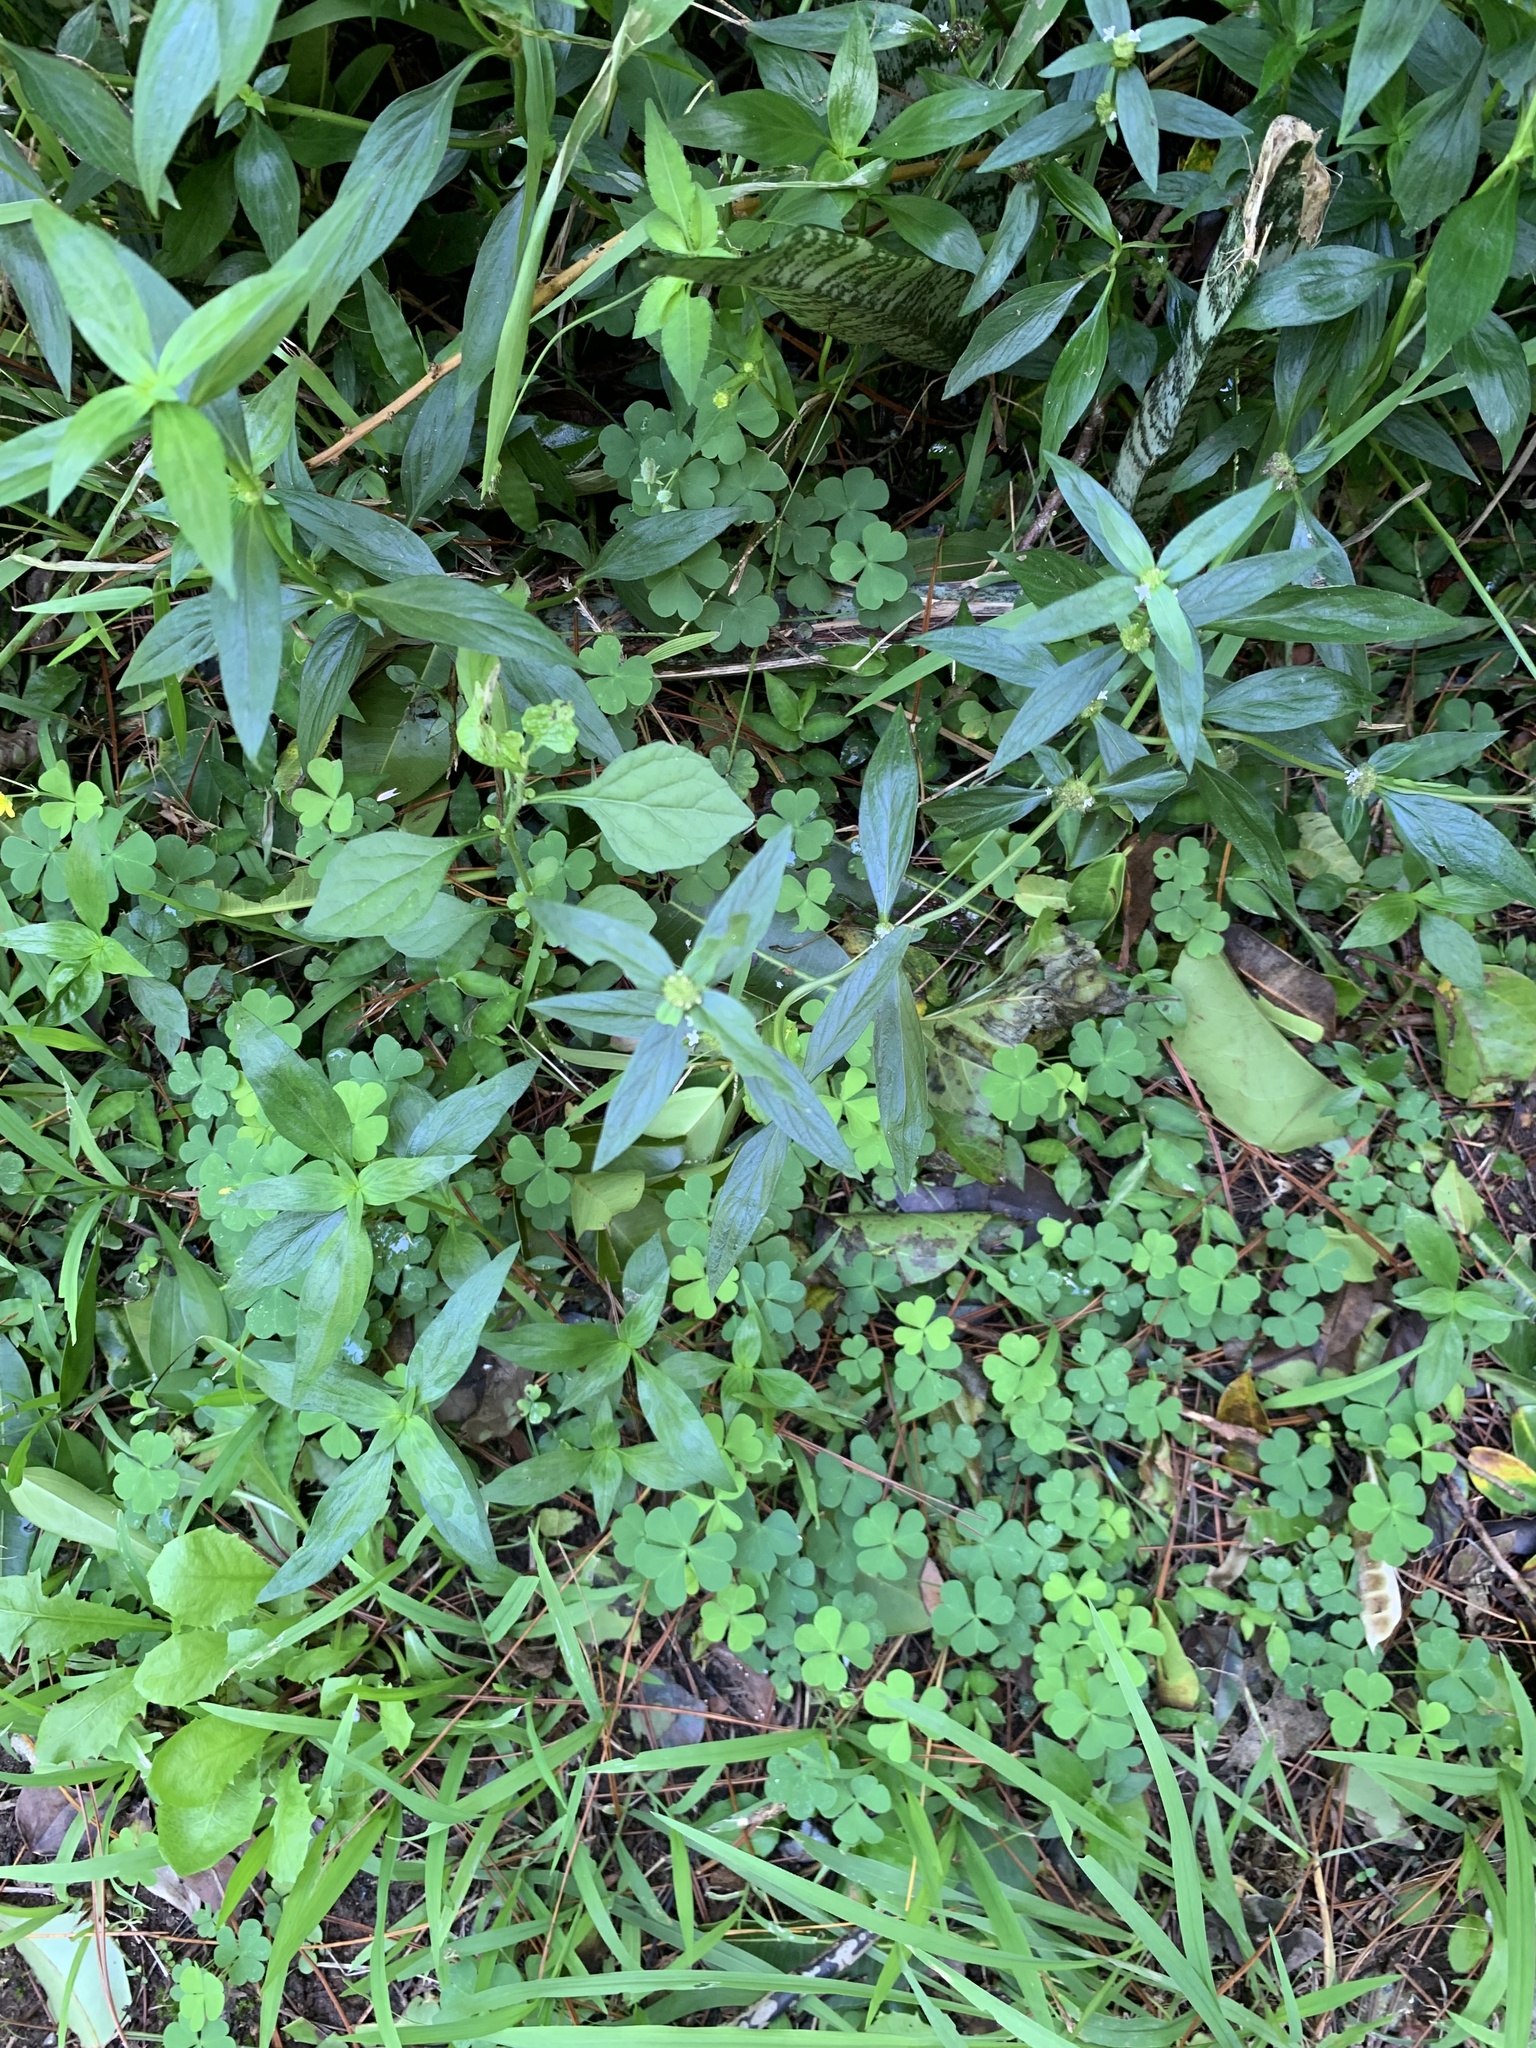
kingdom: Plantae
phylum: Tracheophyta
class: Magnoliopsida
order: Gentianales
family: Rubiaceae
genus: Spermacoce
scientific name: Spermacoce remota
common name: Woodland false buttonweed
